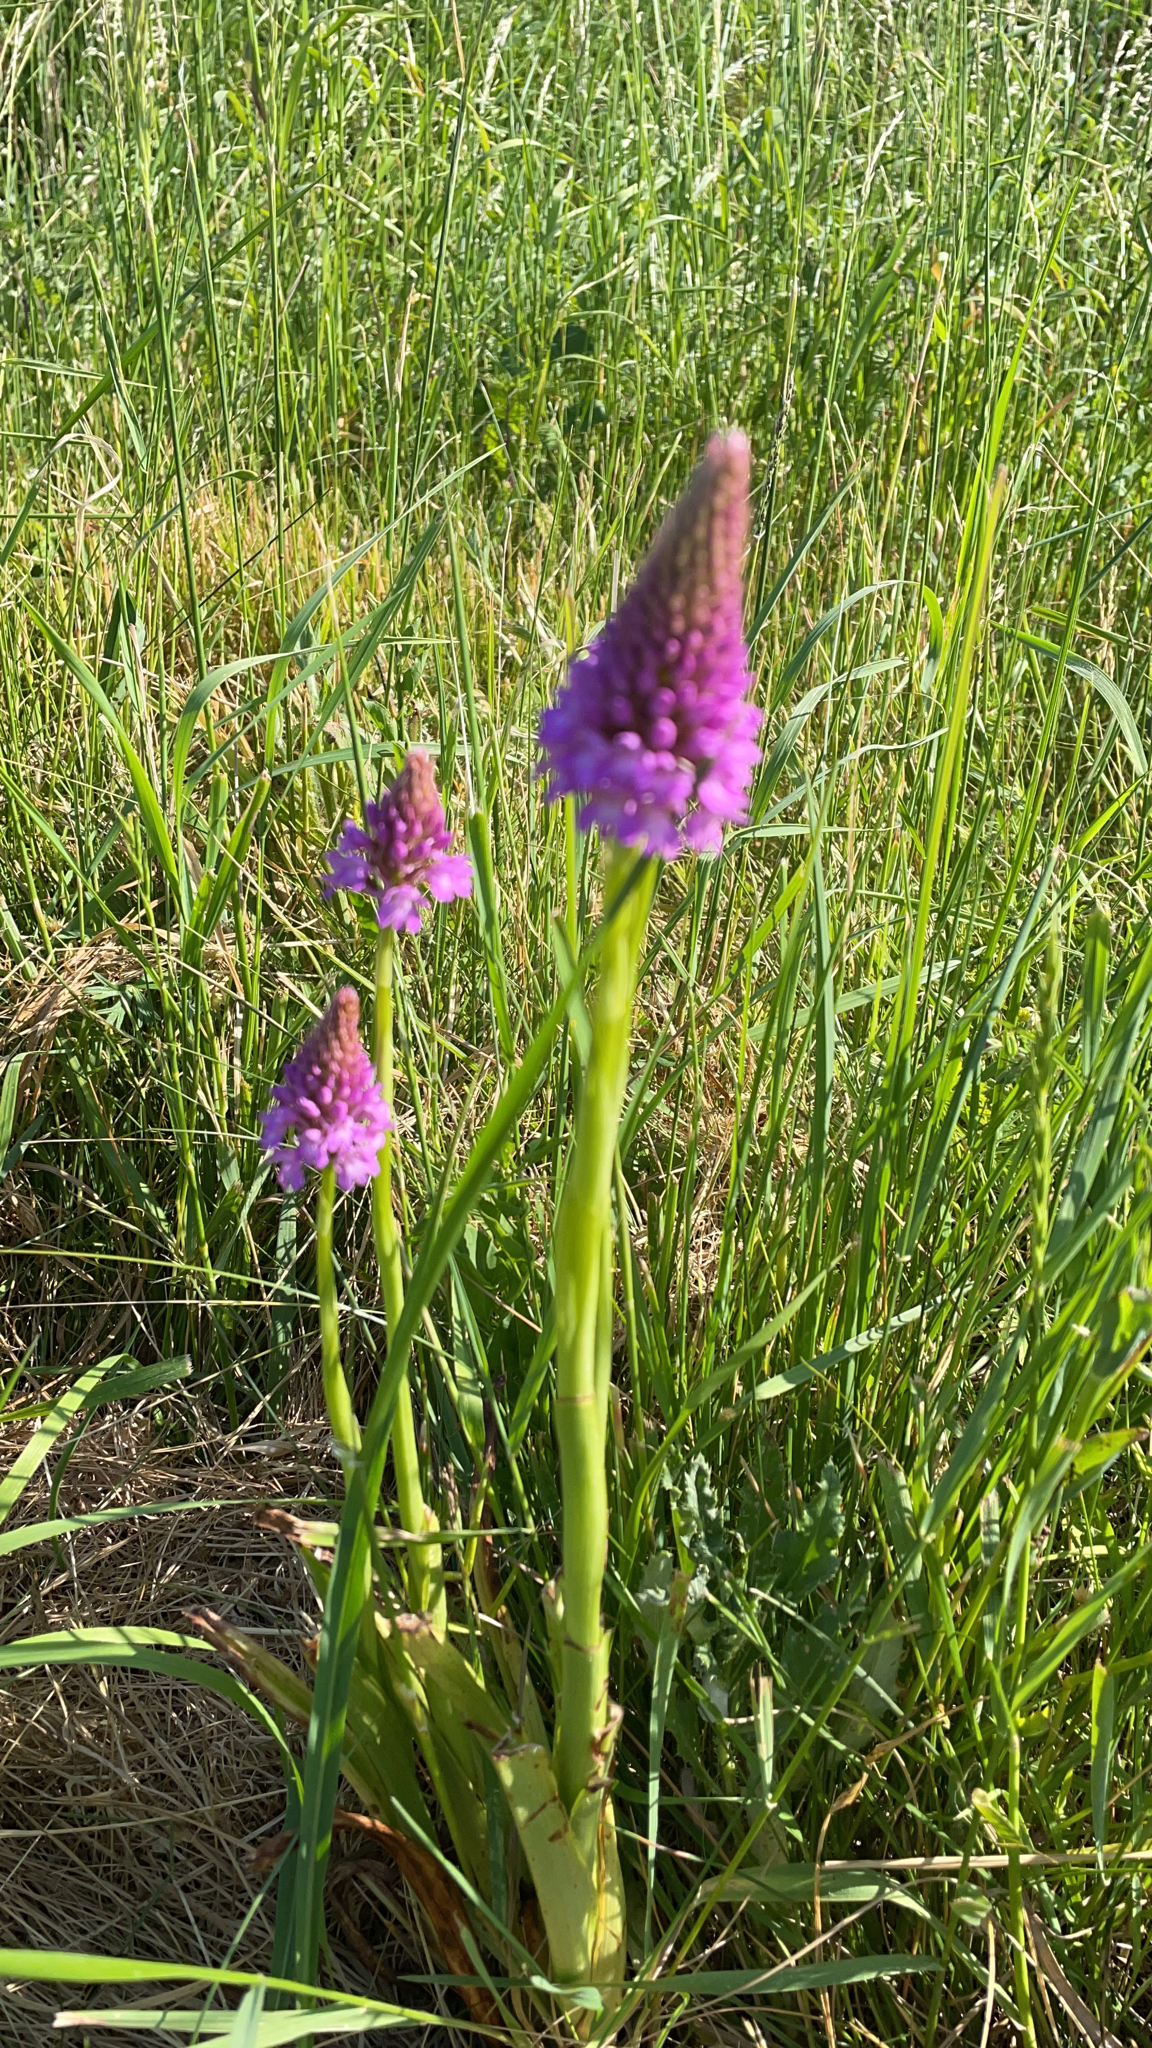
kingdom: Plantae
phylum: Tracheophyta
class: Liliopsida
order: Asparagales
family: Orchidaceae
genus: Anacamptis
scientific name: Anacamptis pyramidalis
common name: Pyramidal orchid
